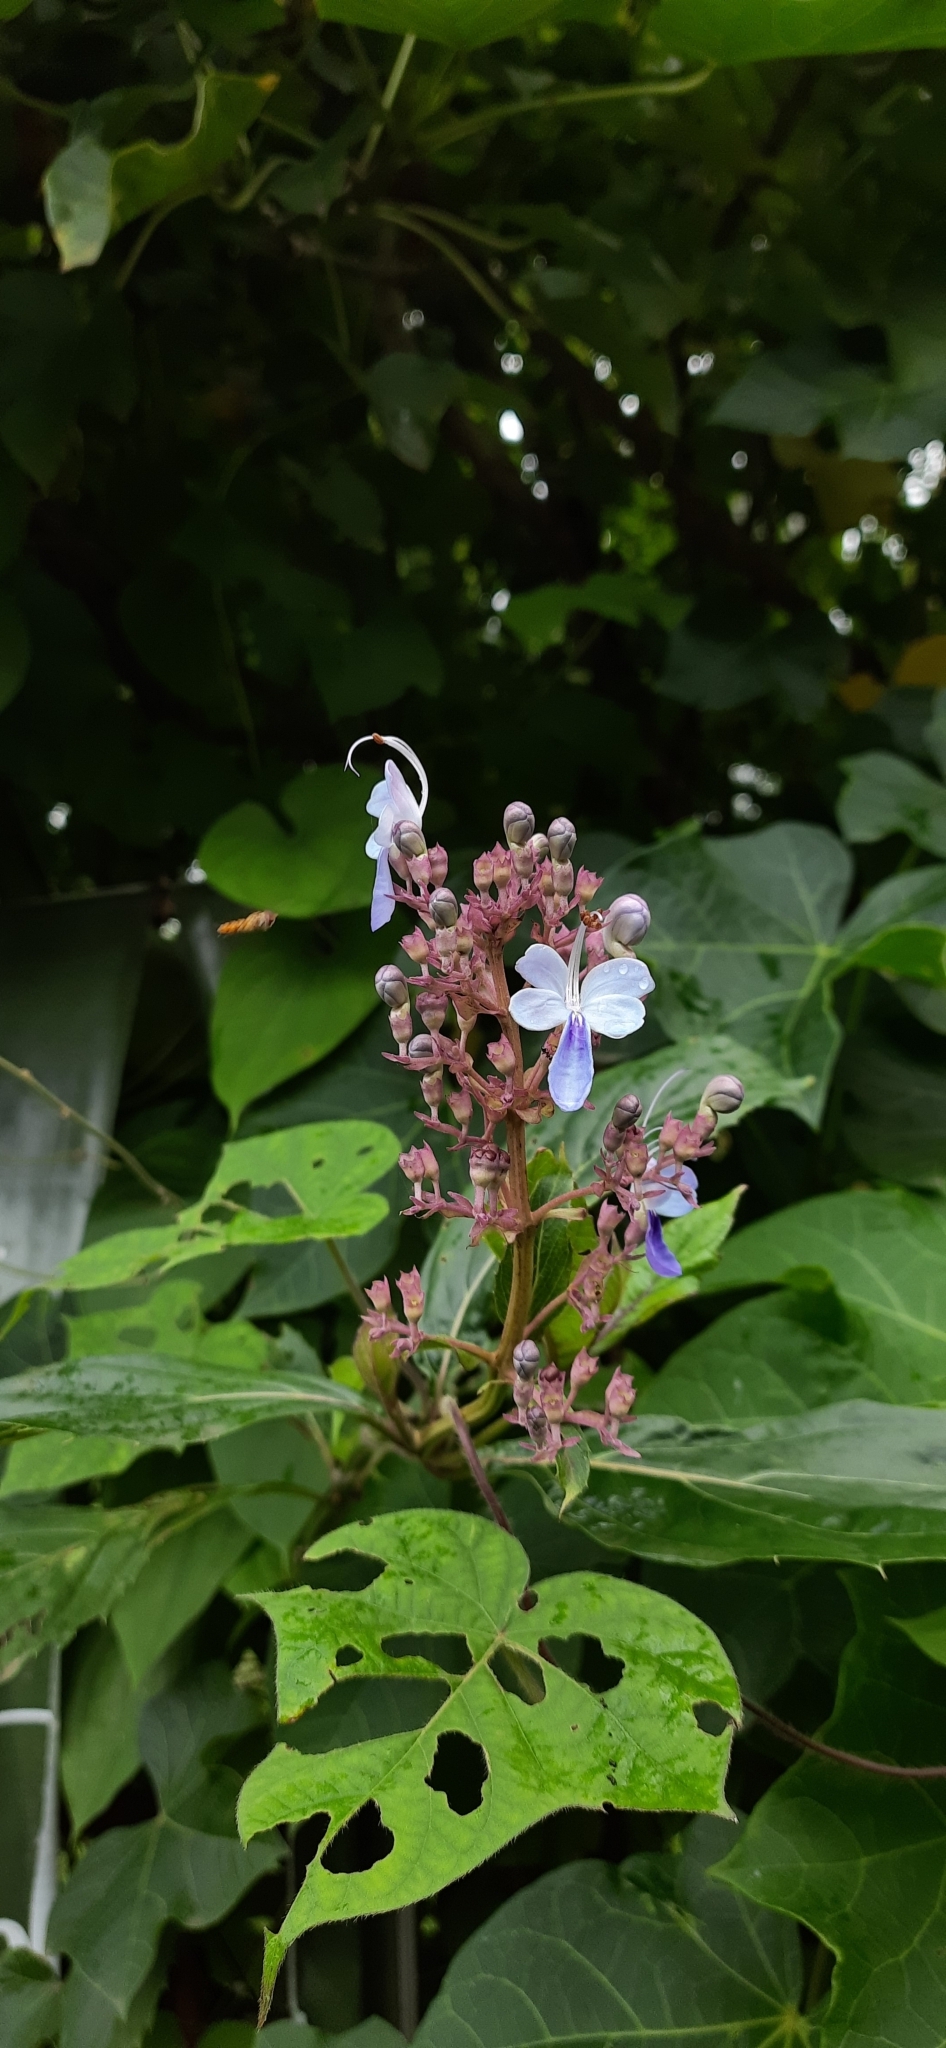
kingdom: Plantae
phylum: Tracheophyta
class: Magnoliopsida
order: Lamiales
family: Lamiaceae
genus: Rotheca
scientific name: Rotheca serrata
